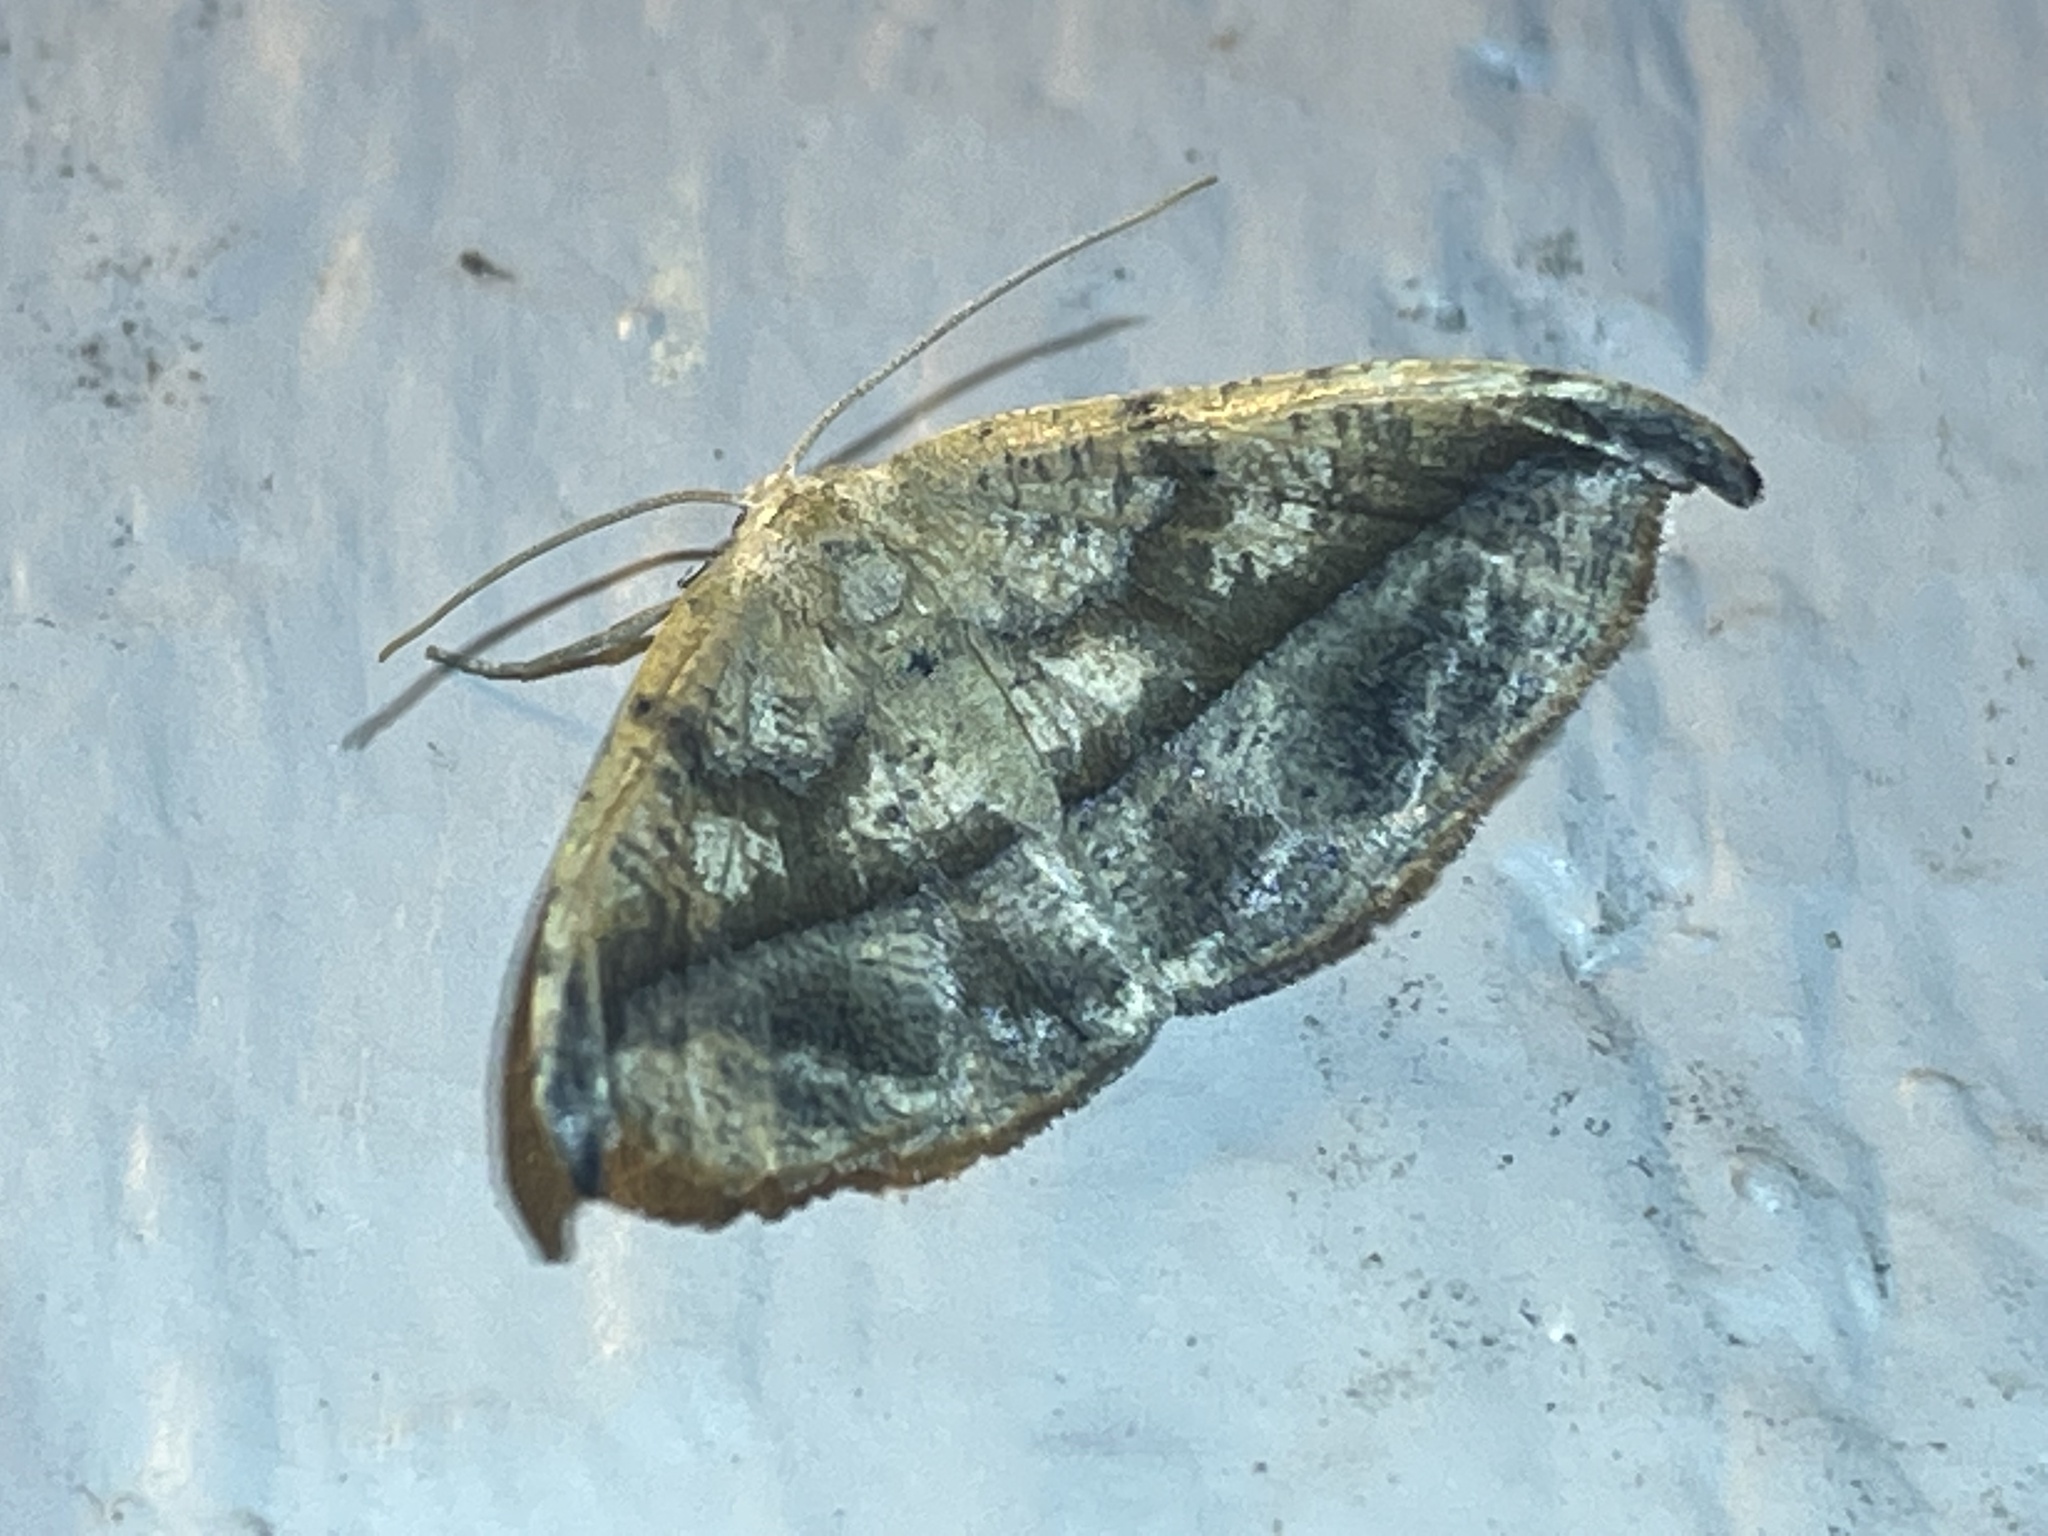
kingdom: Animalia
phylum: Arthropoda
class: Insecta
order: Lepidoptera
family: Geometridae
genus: Patalene
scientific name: Patalene olyzonaria
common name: Juniper geometer moth
